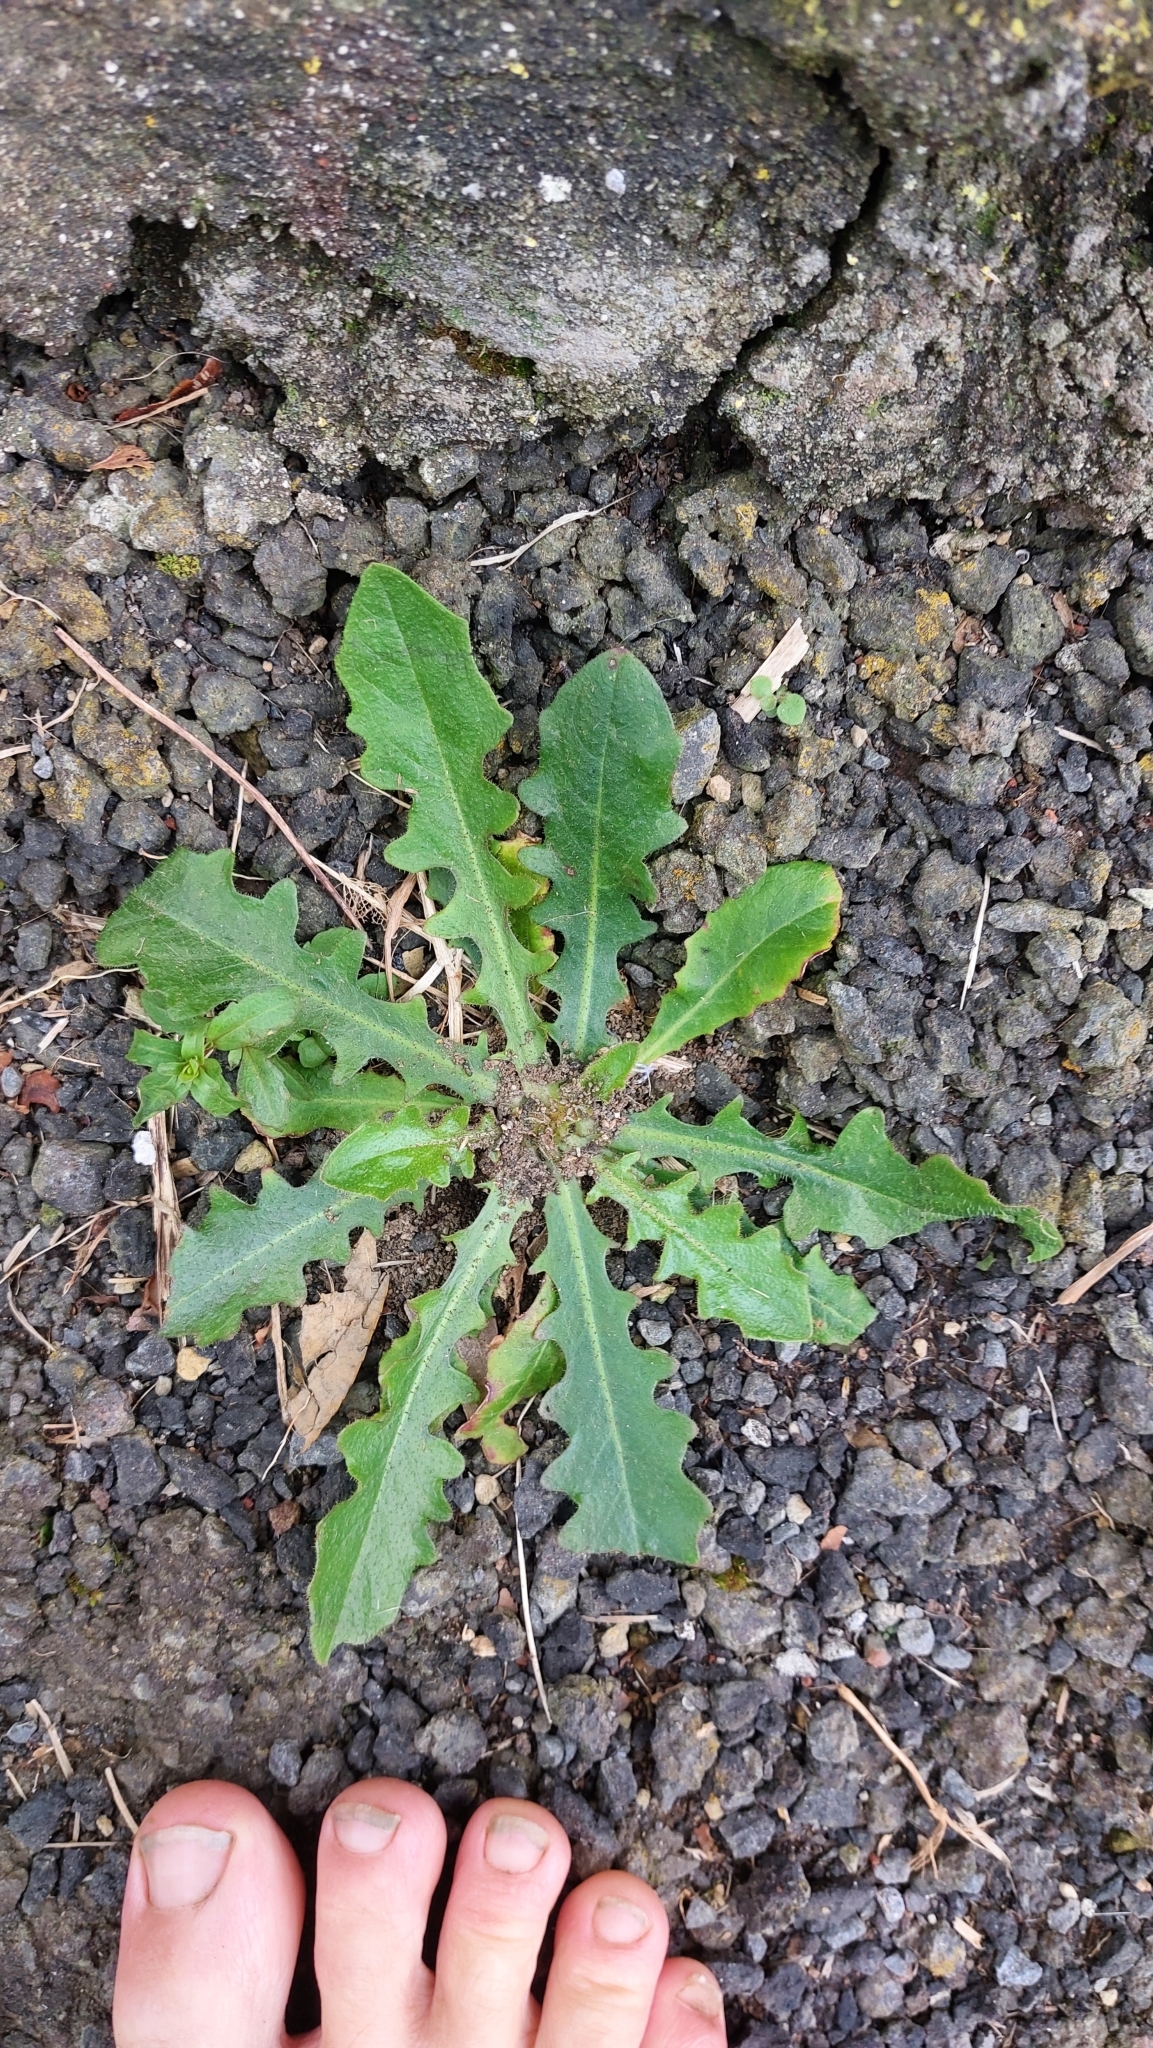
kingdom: Plantae
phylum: Tracheophyta
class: Magnoliopsida
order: Asterales
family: Asteraceae
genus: Hypochaeris
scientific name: Hypochaeris radicata
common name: Flatweed
